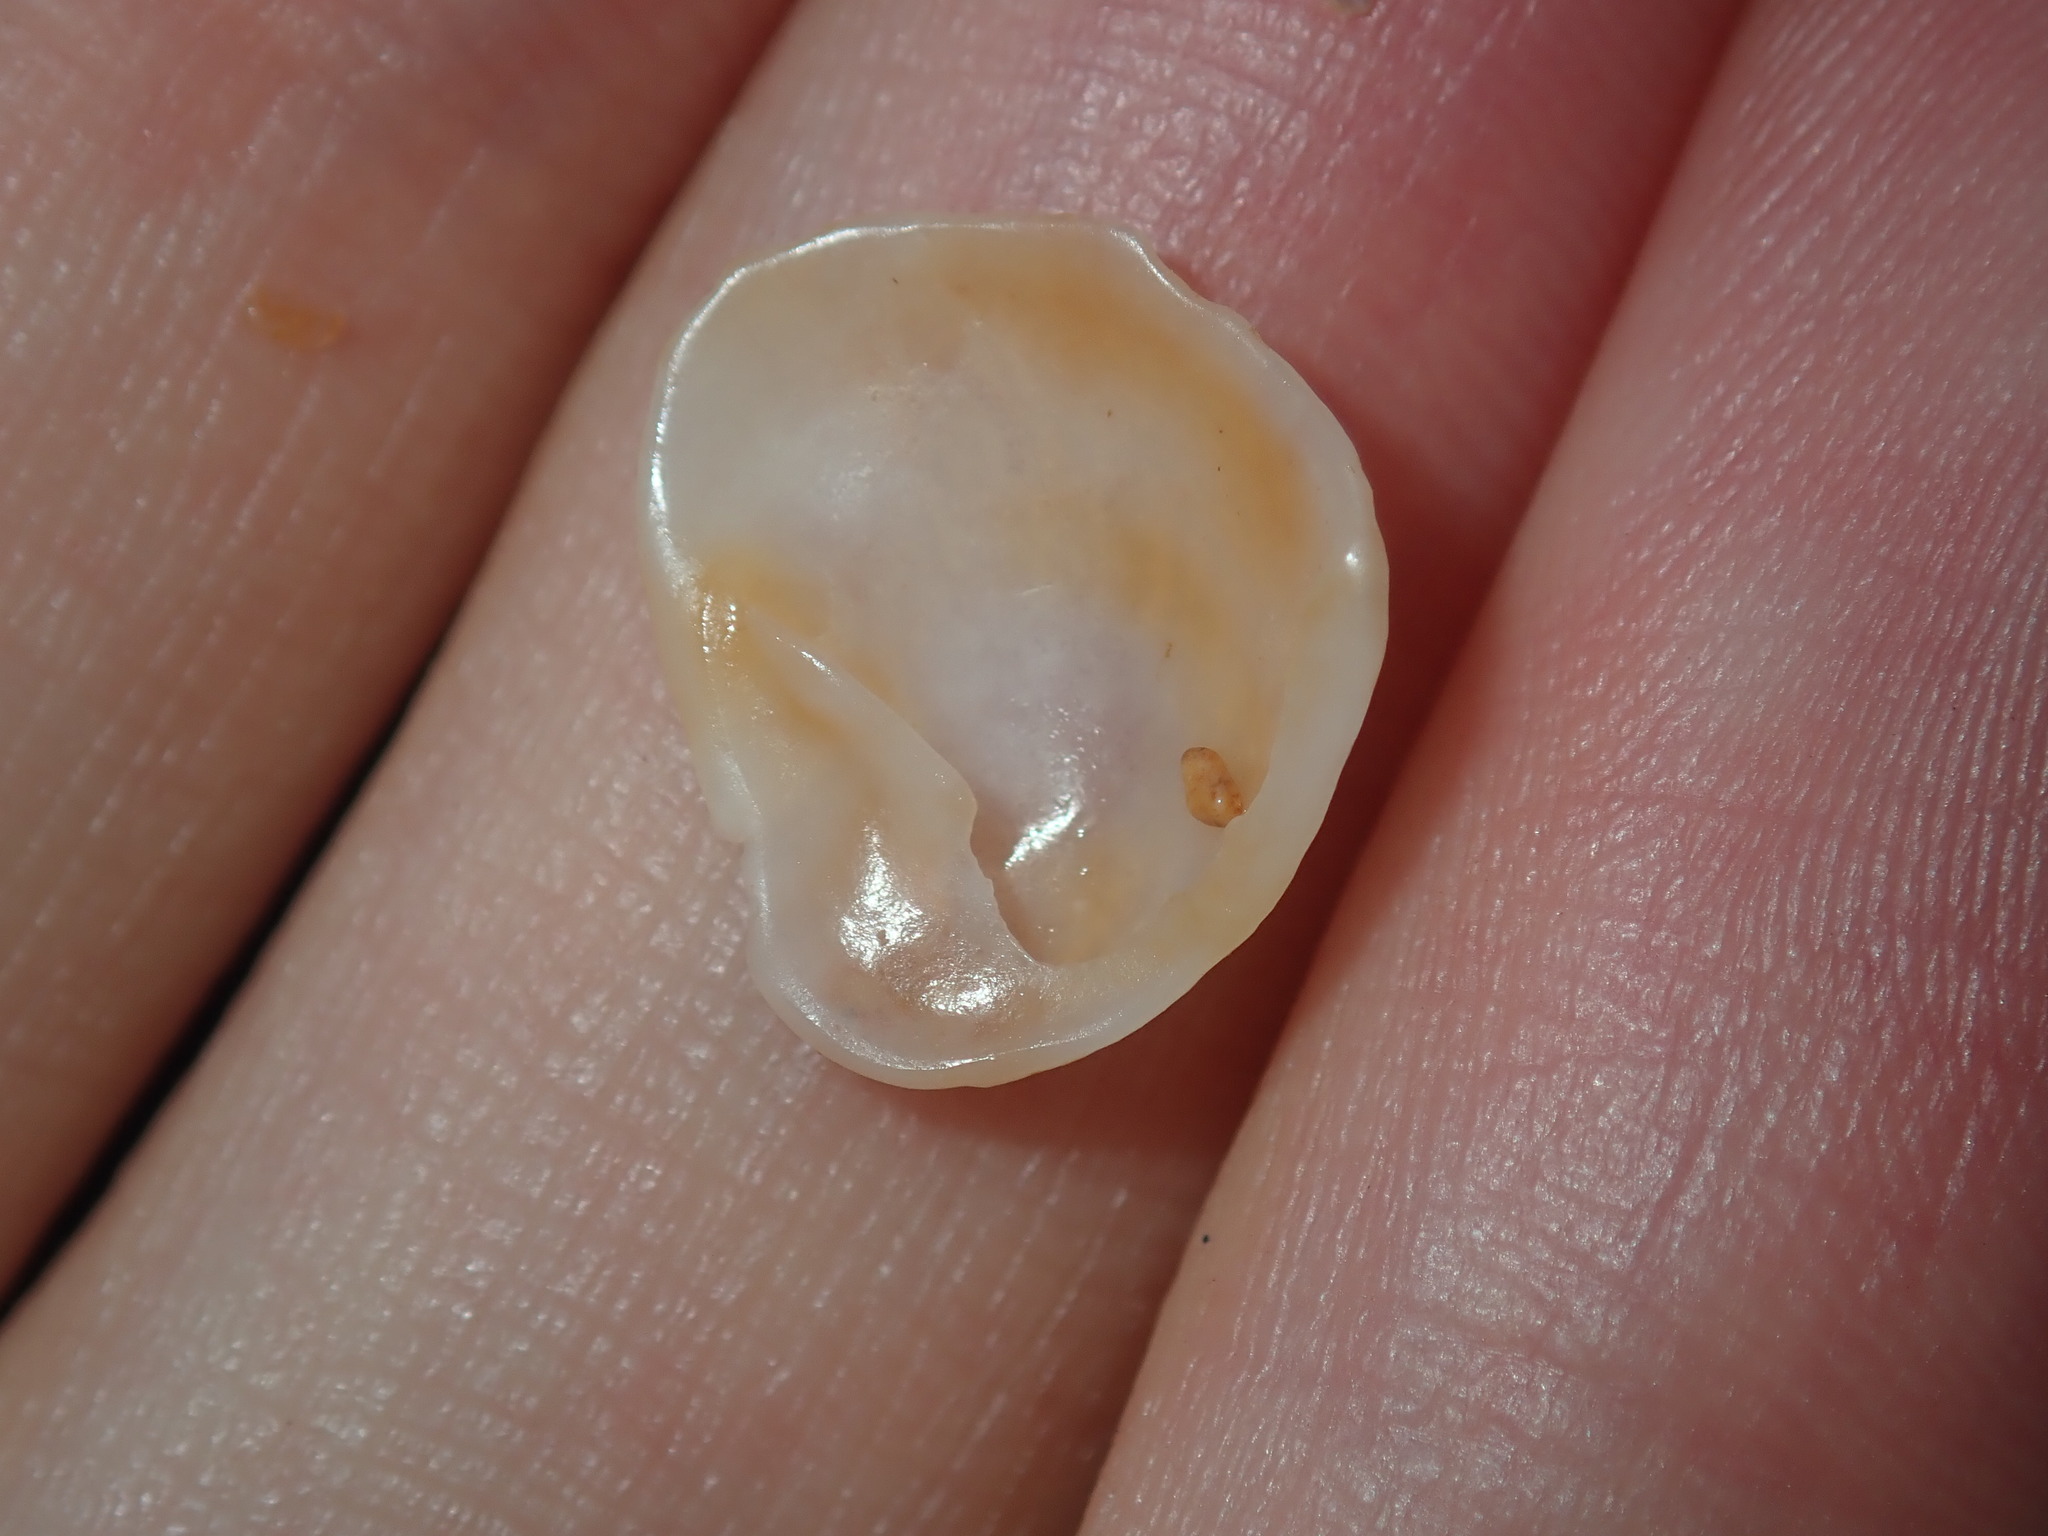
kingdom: Animalia
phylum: Mollusca
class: Gastropoda
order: Littorinimorpha
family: Calyptraeidae
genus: Bostrycapulus
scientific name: Bostrycapulus pritzkeri
